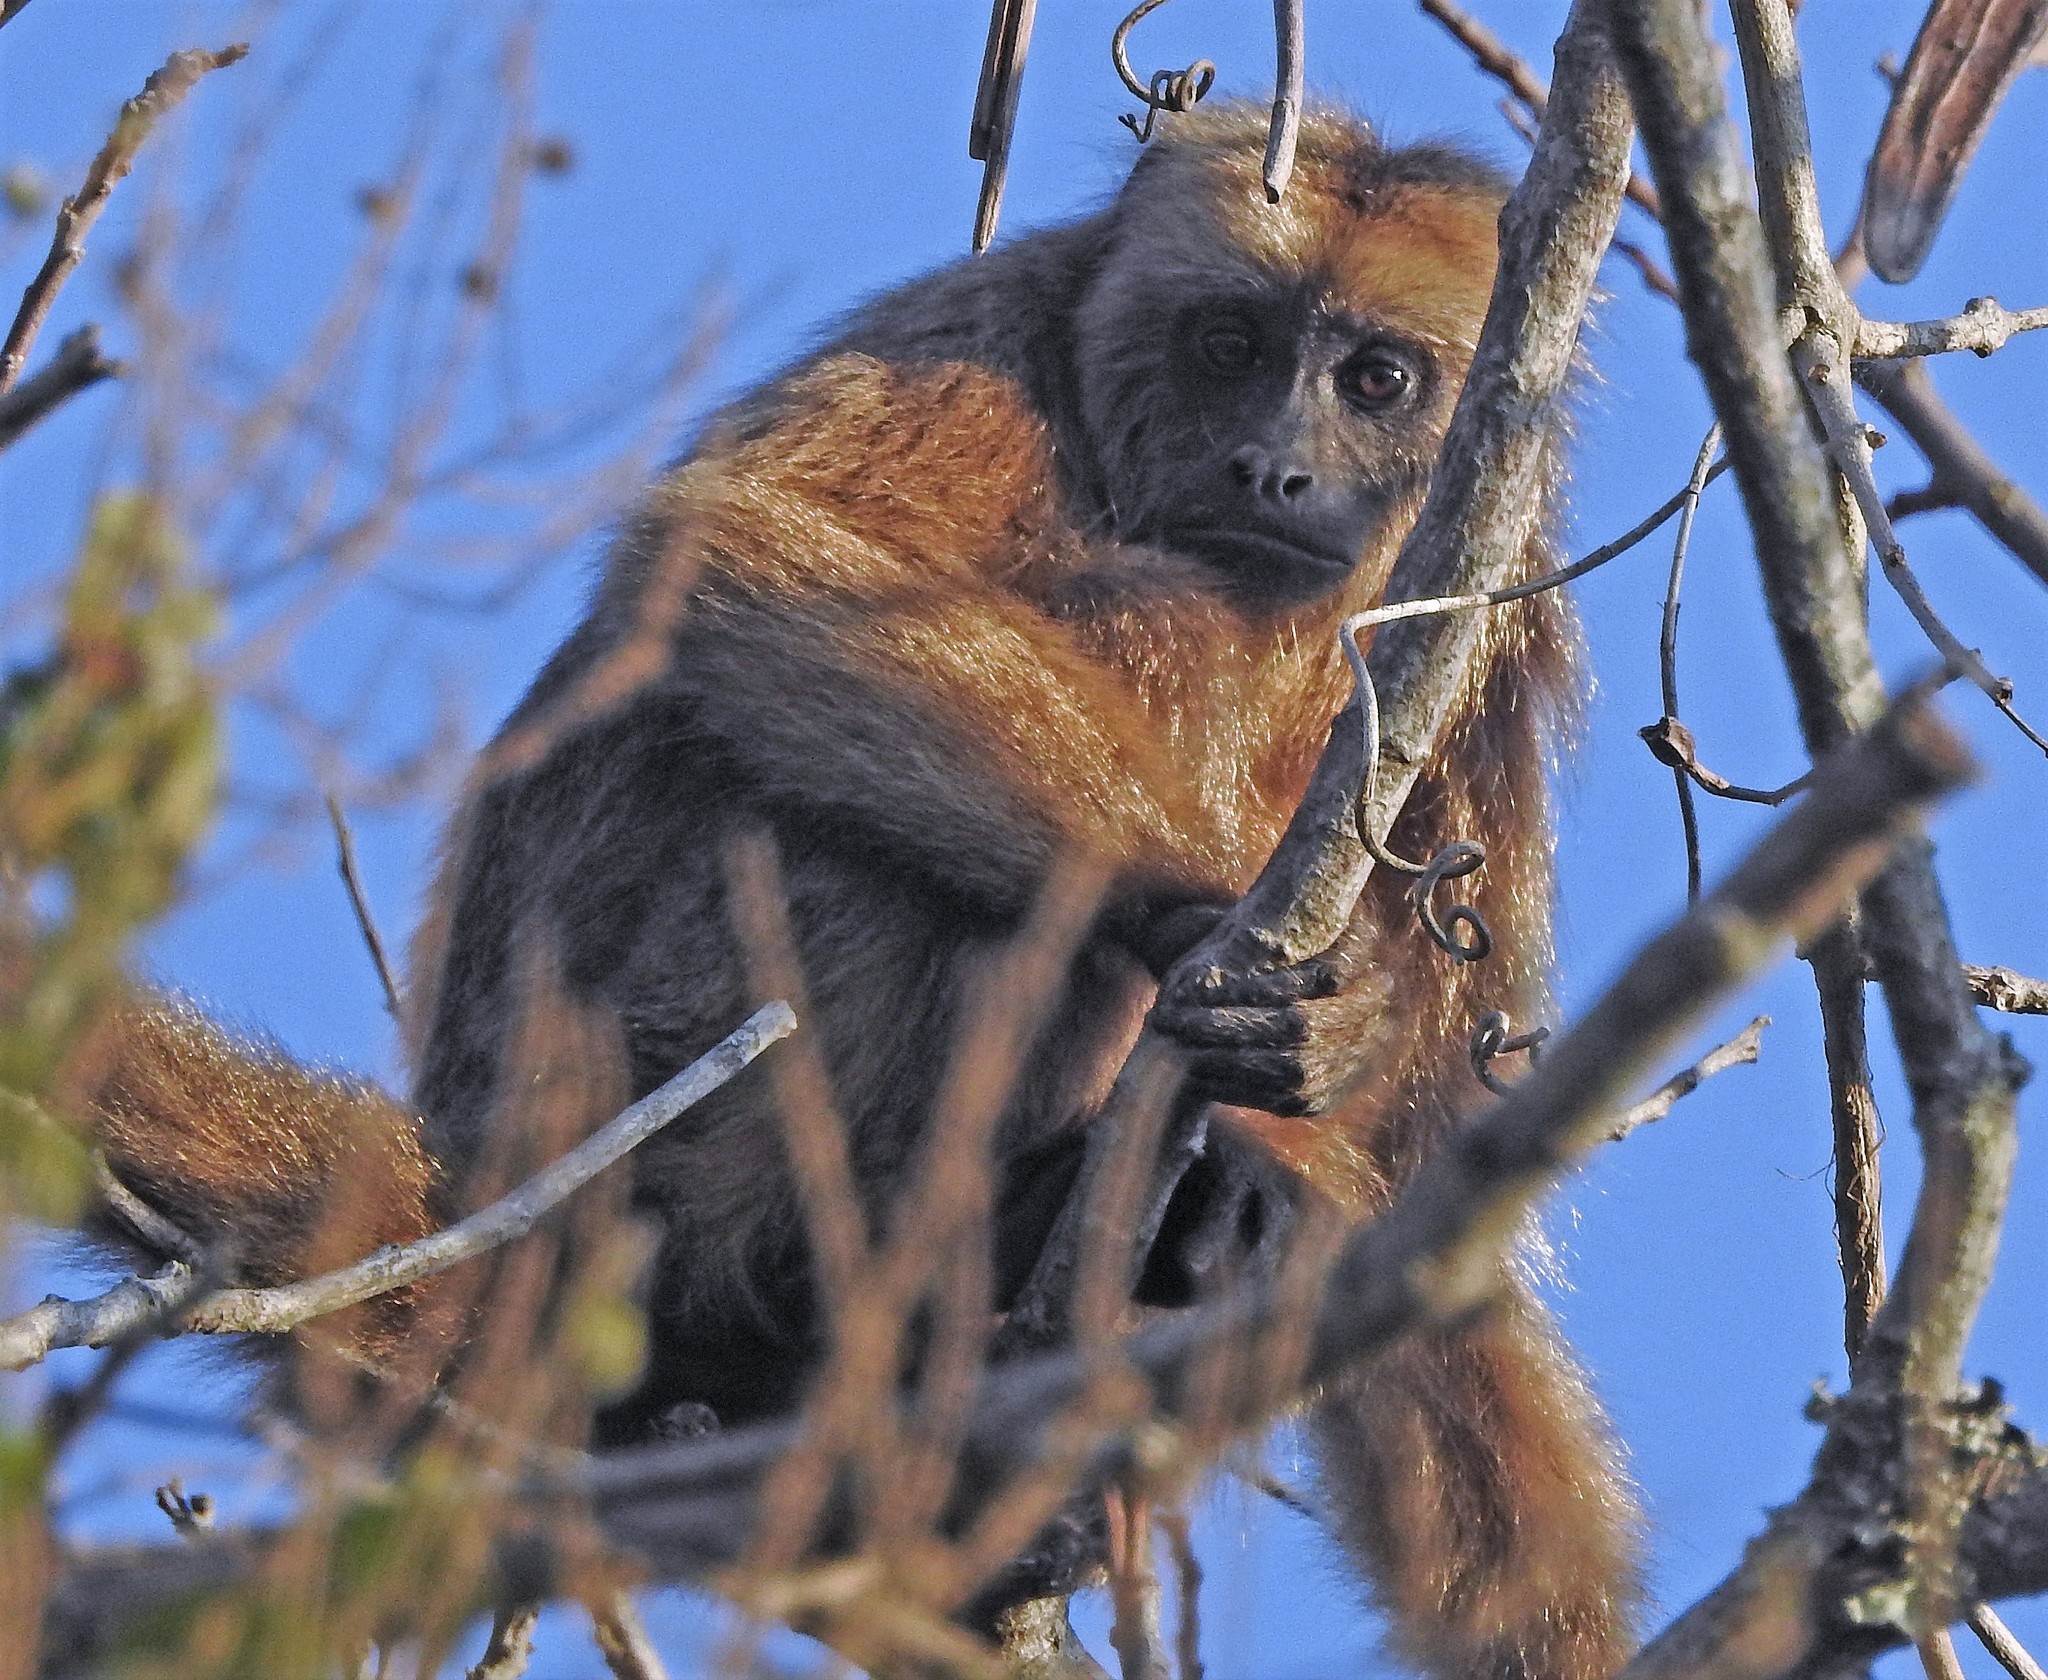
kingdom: Animalia
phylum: Chordata
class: Mammalia
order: Primates
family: Atelidae
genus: Alouatta
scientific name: Alouatta caraya
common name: Black howler
